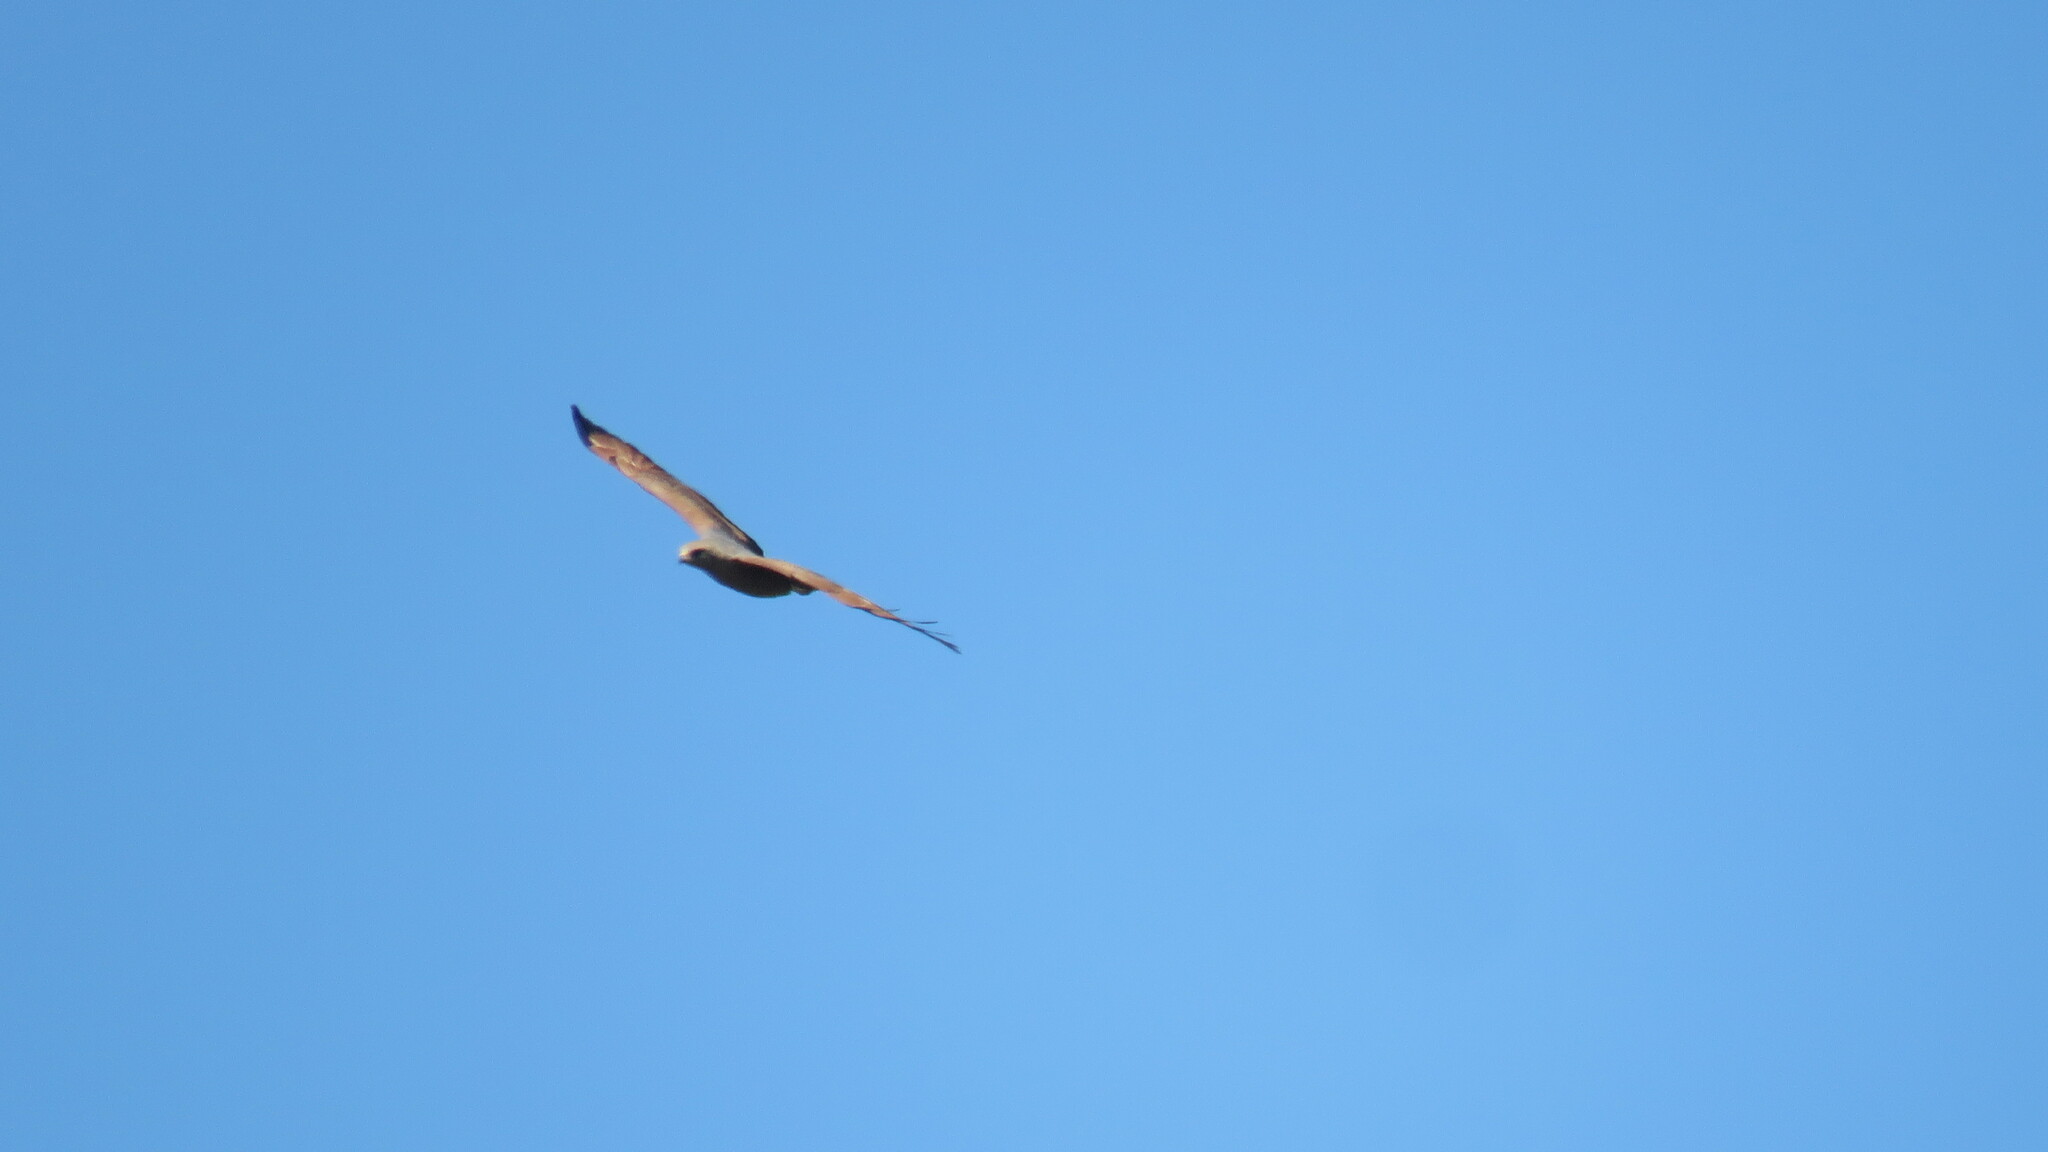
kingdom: Animalia
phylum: Chordata
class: Aves
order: Accipitriformes
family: Accipitridae
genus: Buteogallus
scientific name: Buteogallus meridionalis
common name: Savanna hawk
